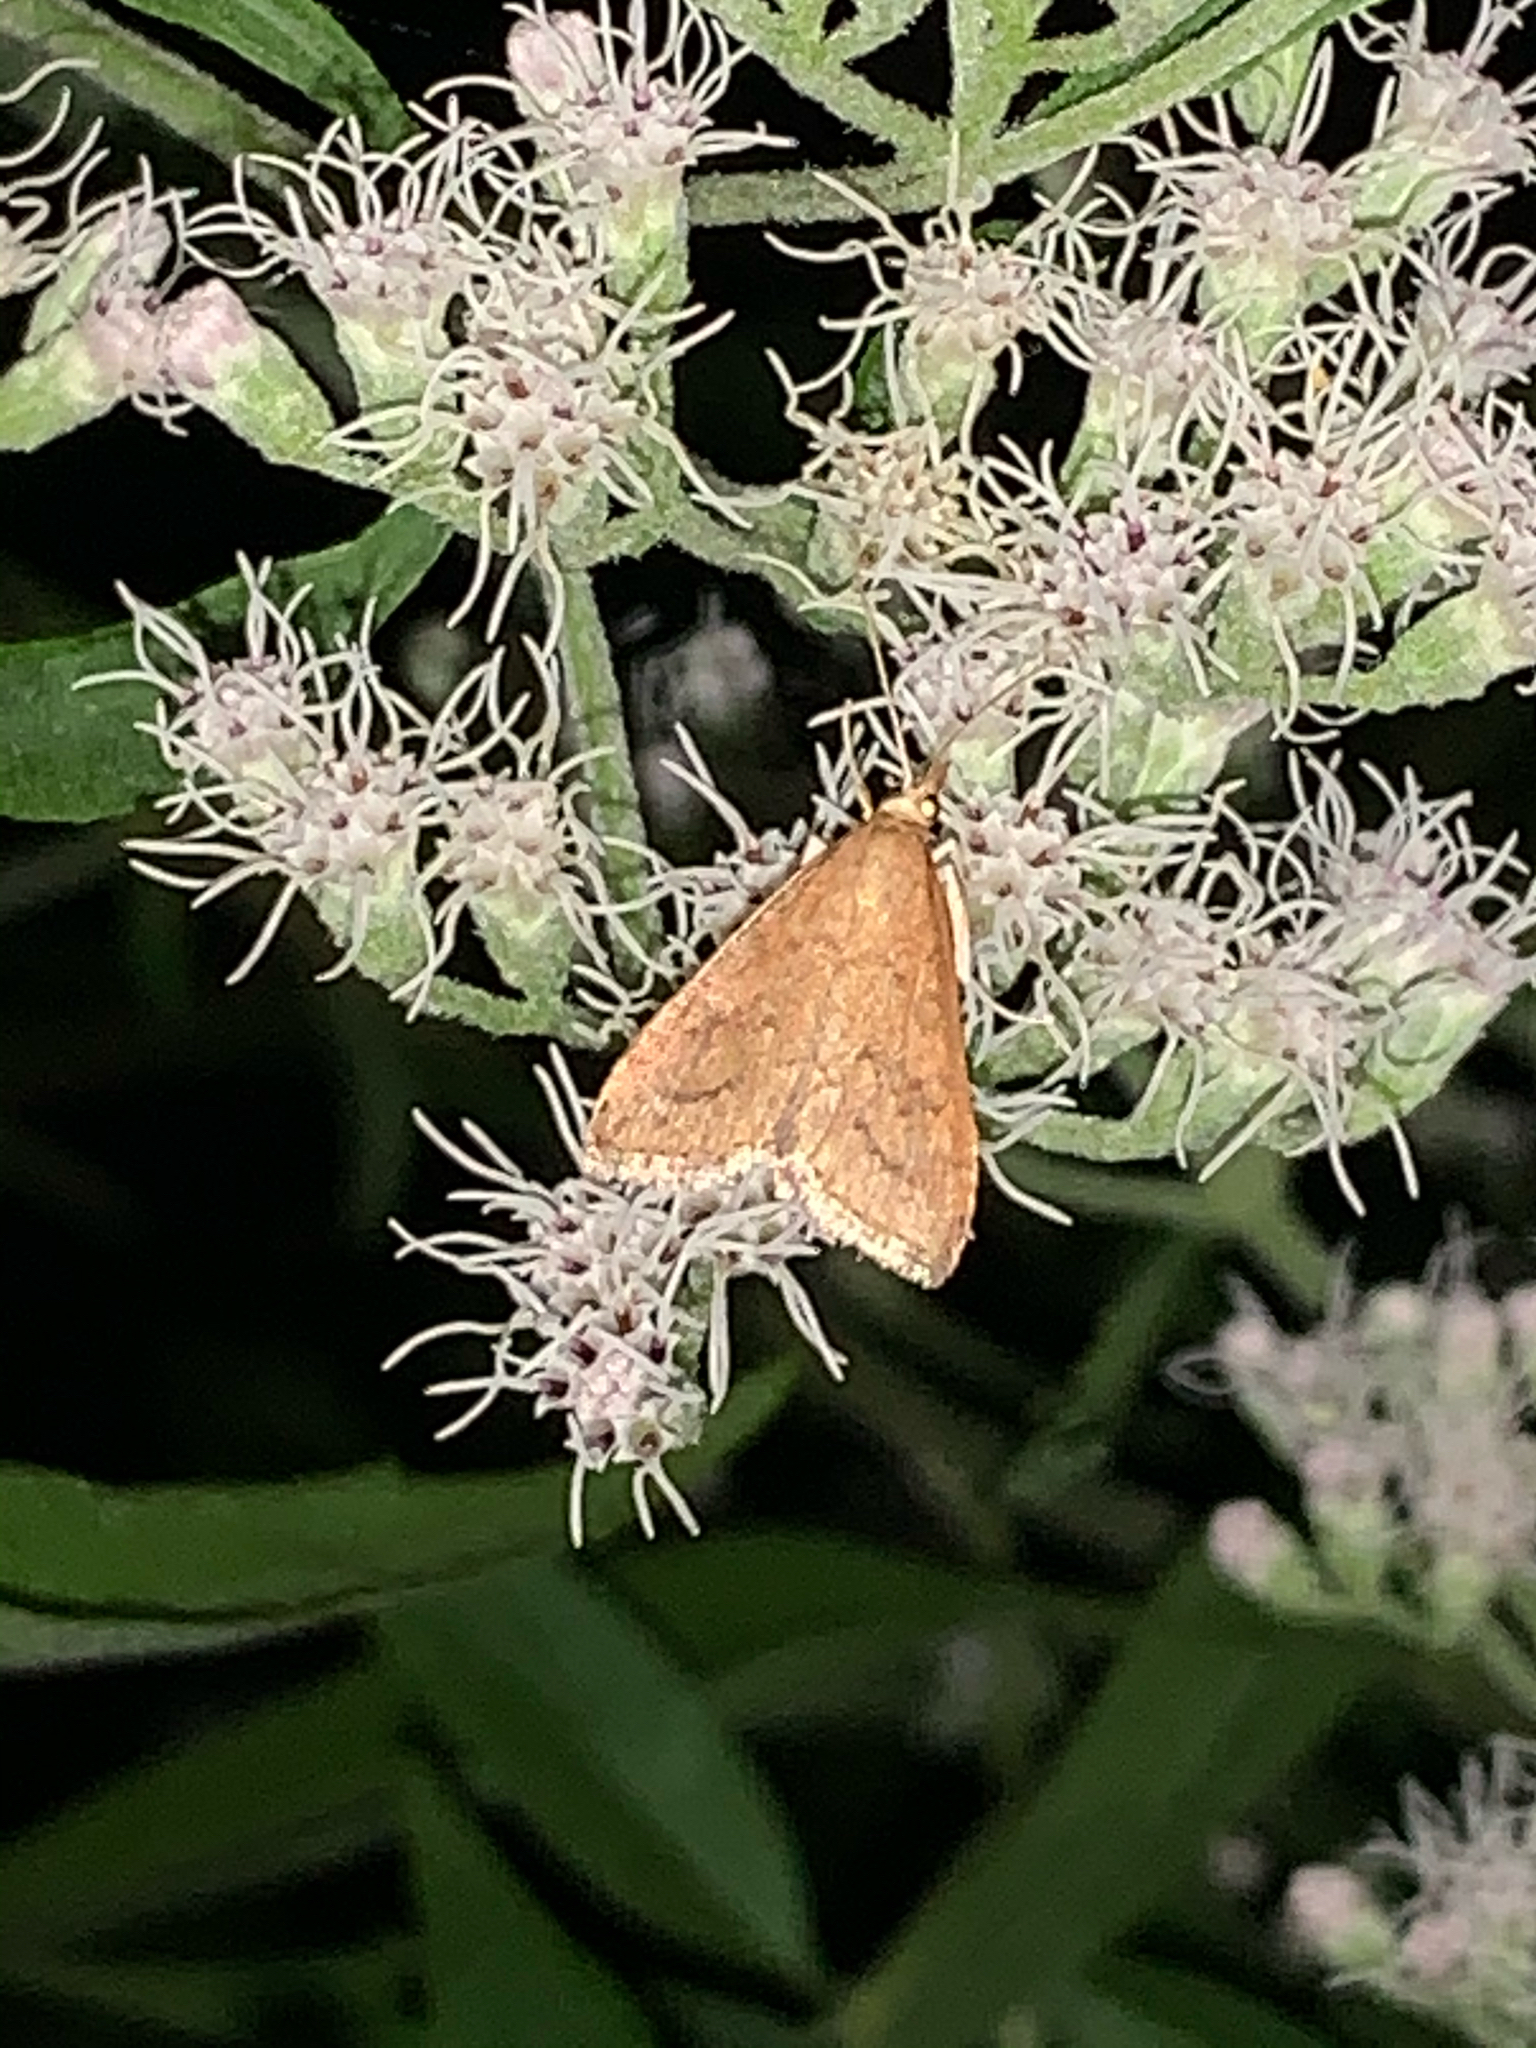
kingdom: Animalia
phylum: Arthropoda
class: Insecta
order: Lepidoptera
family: Crambidae
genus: Udea
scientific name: Udea rubigalis
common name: Celery leaftier moth
